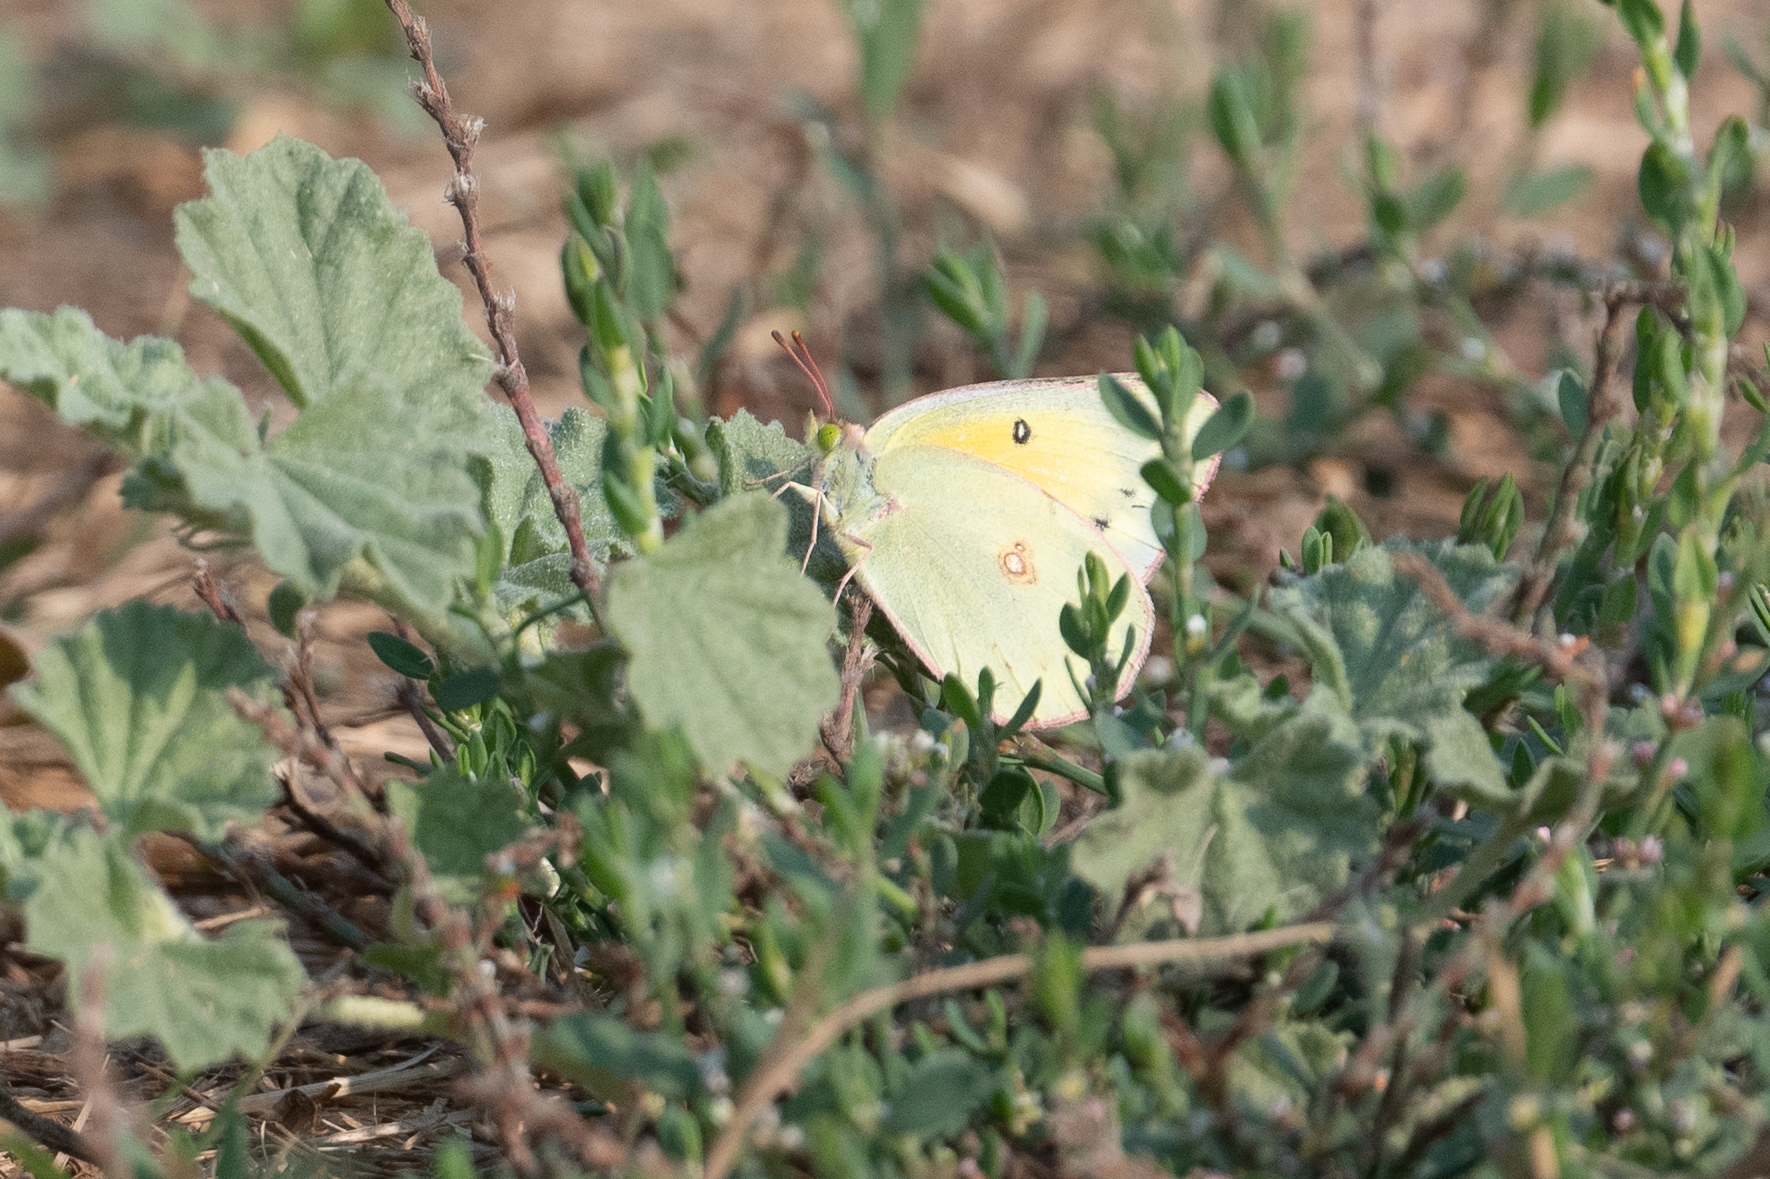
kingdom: Animalia
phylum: Arthropoda
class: Insecta
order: Lepidoptera
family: Pieridae
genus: Colias
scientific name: Colias eurytheme
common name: Alfalfa butterfly
